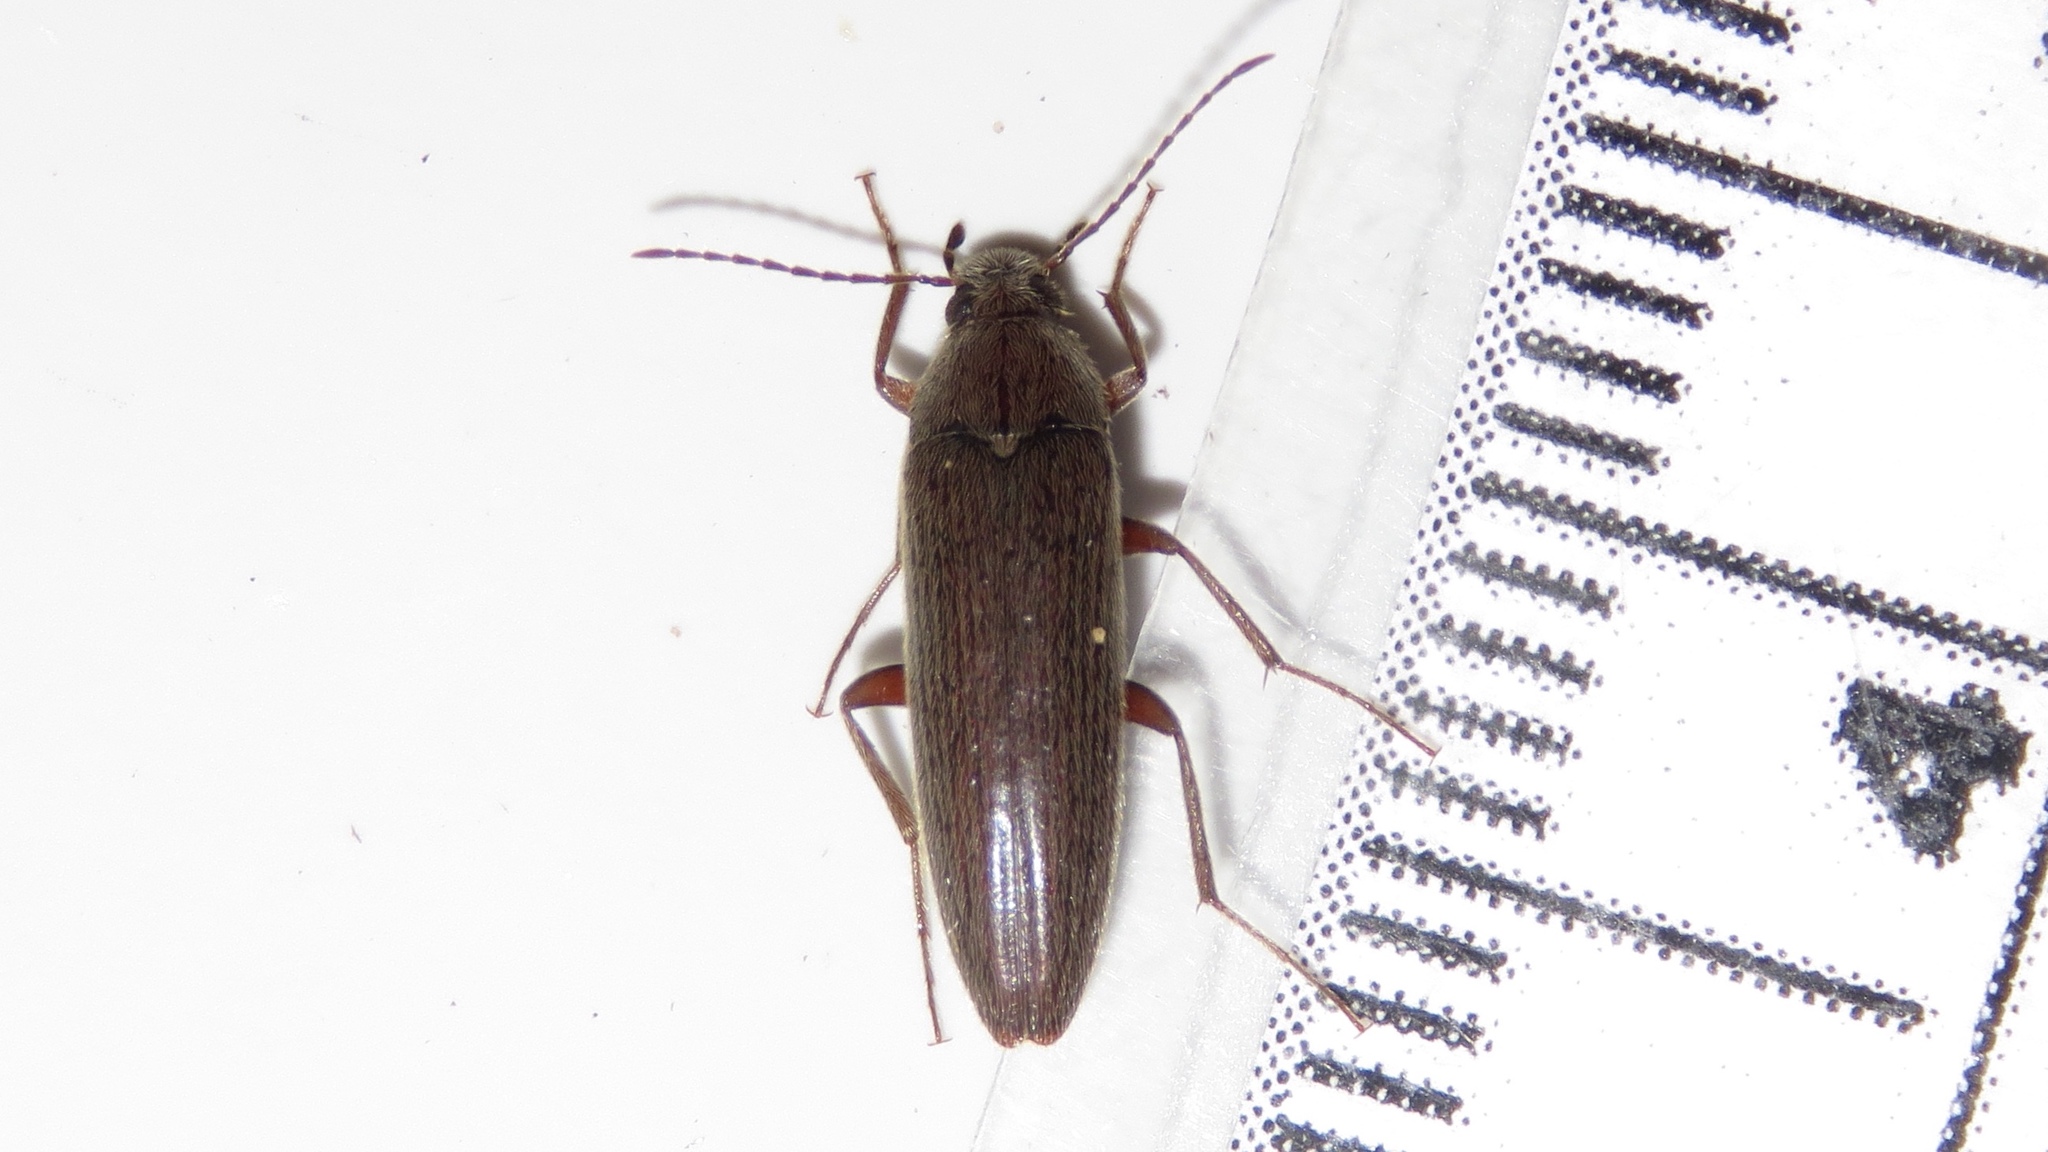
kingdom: Animalia
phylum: Arthropoda
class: Insecta
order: Coleoptera
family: Synchroidae
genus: Synchroa
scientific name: Synchroa punctata
